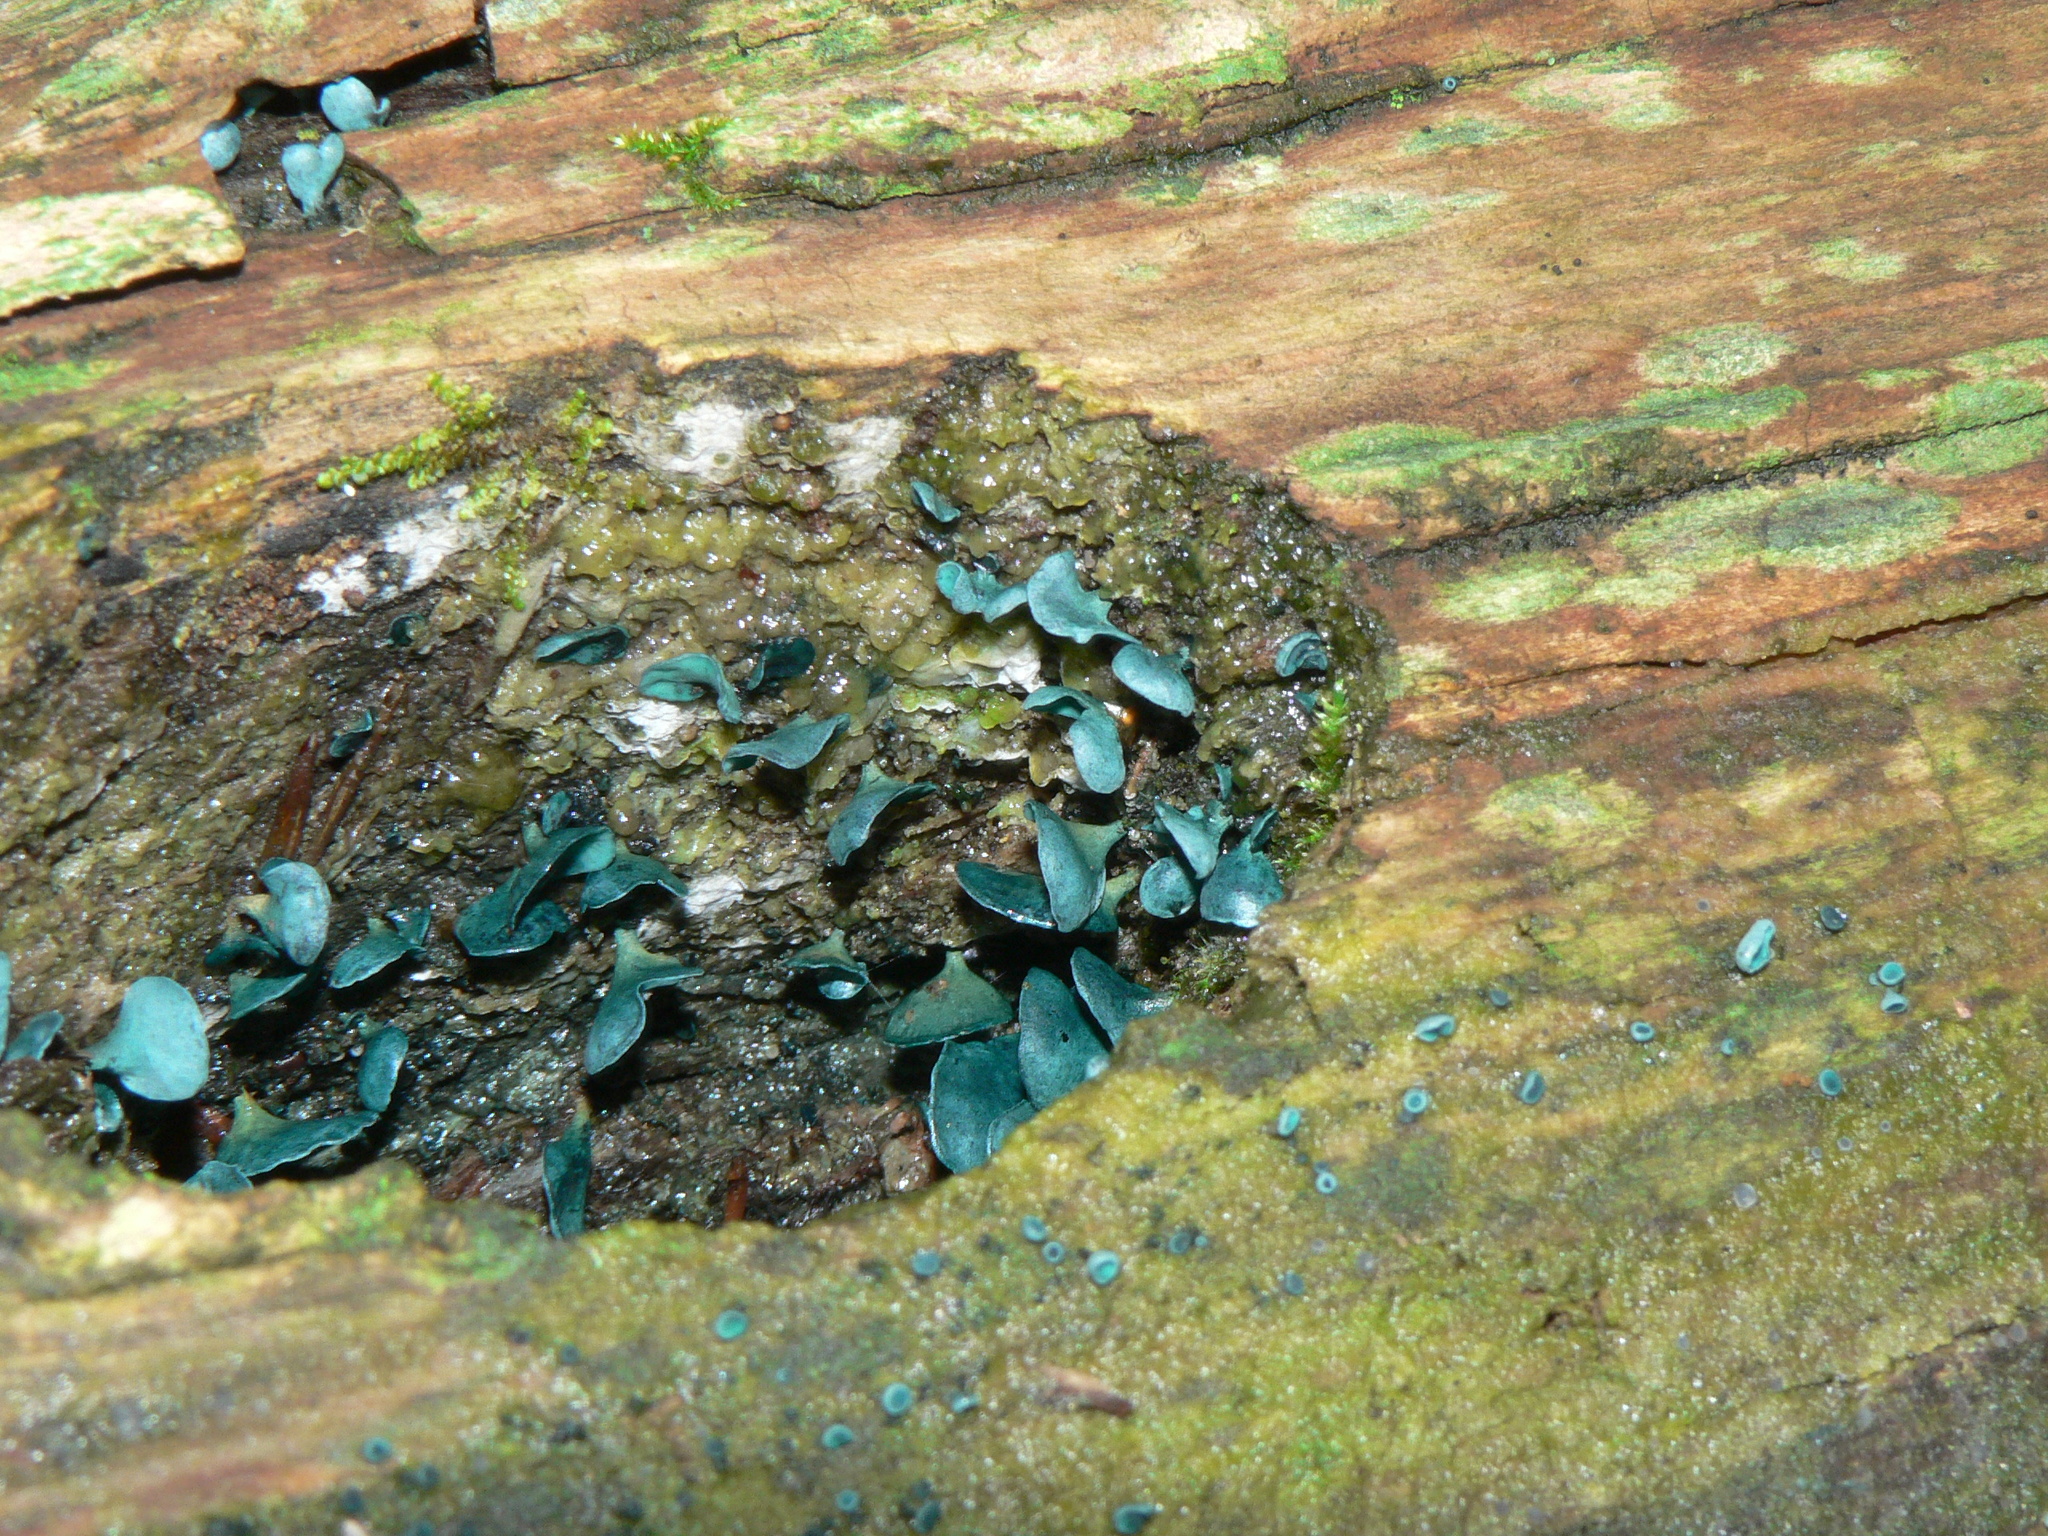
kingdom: Fungi
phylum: Ascomycota
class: Leotiomycetes
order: Helotiales
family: Chlorociboriaceae
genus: Chlorociboria
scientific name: Chlorociboria aeruginascens
